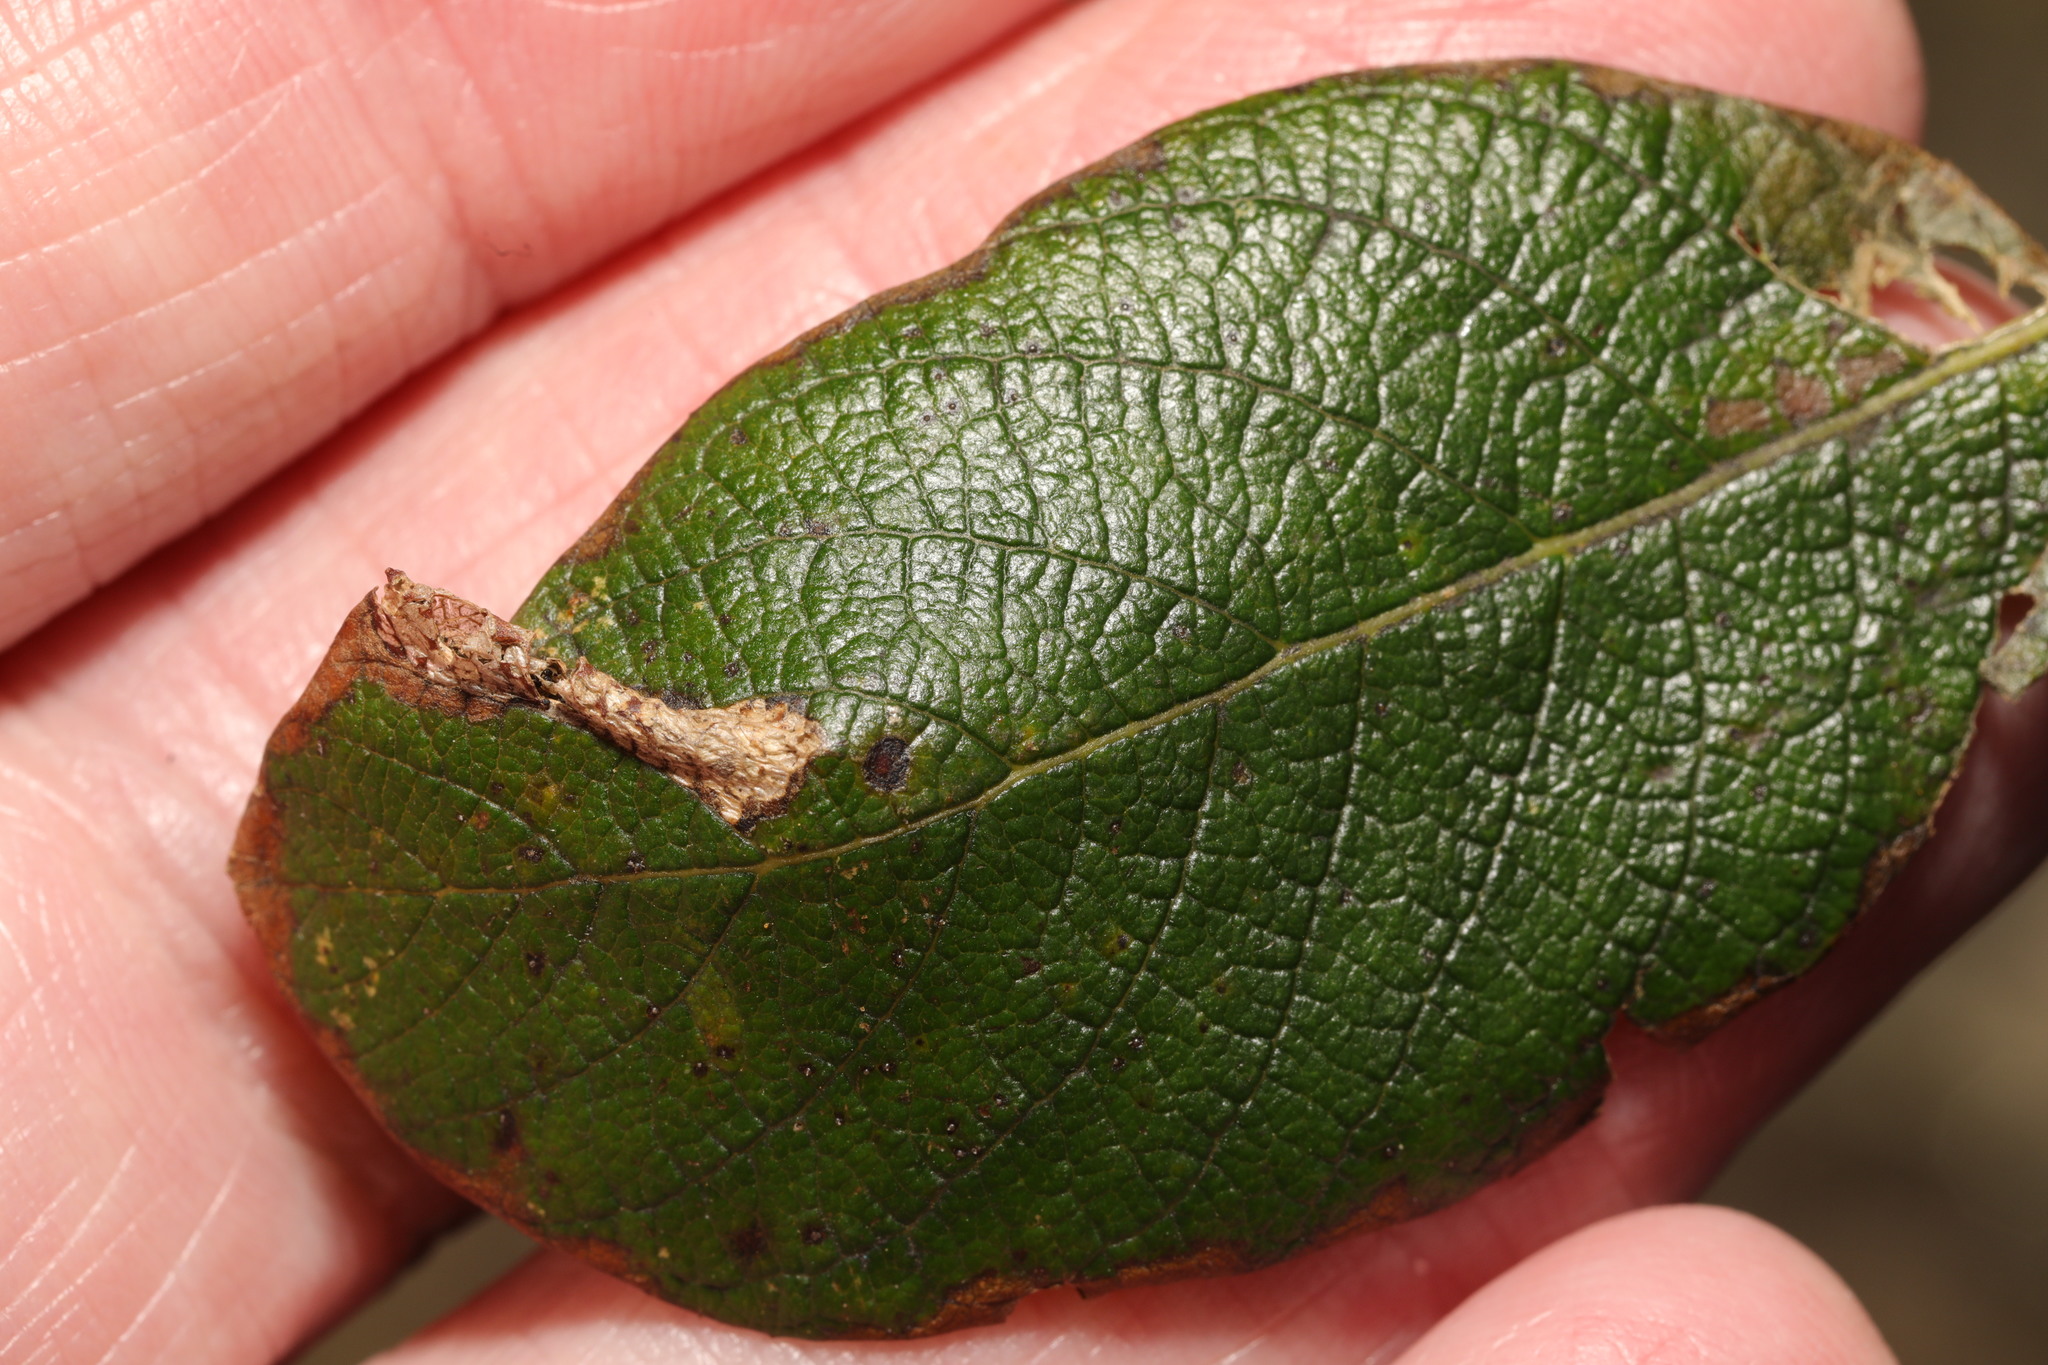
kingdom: Animalia
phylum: Arthropoda
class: Insecta
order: Lepidoptera
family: Gracillariidae
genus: Phyllonorycter
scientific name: Phyllonorycter salicicolella
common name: Long-streak midget
